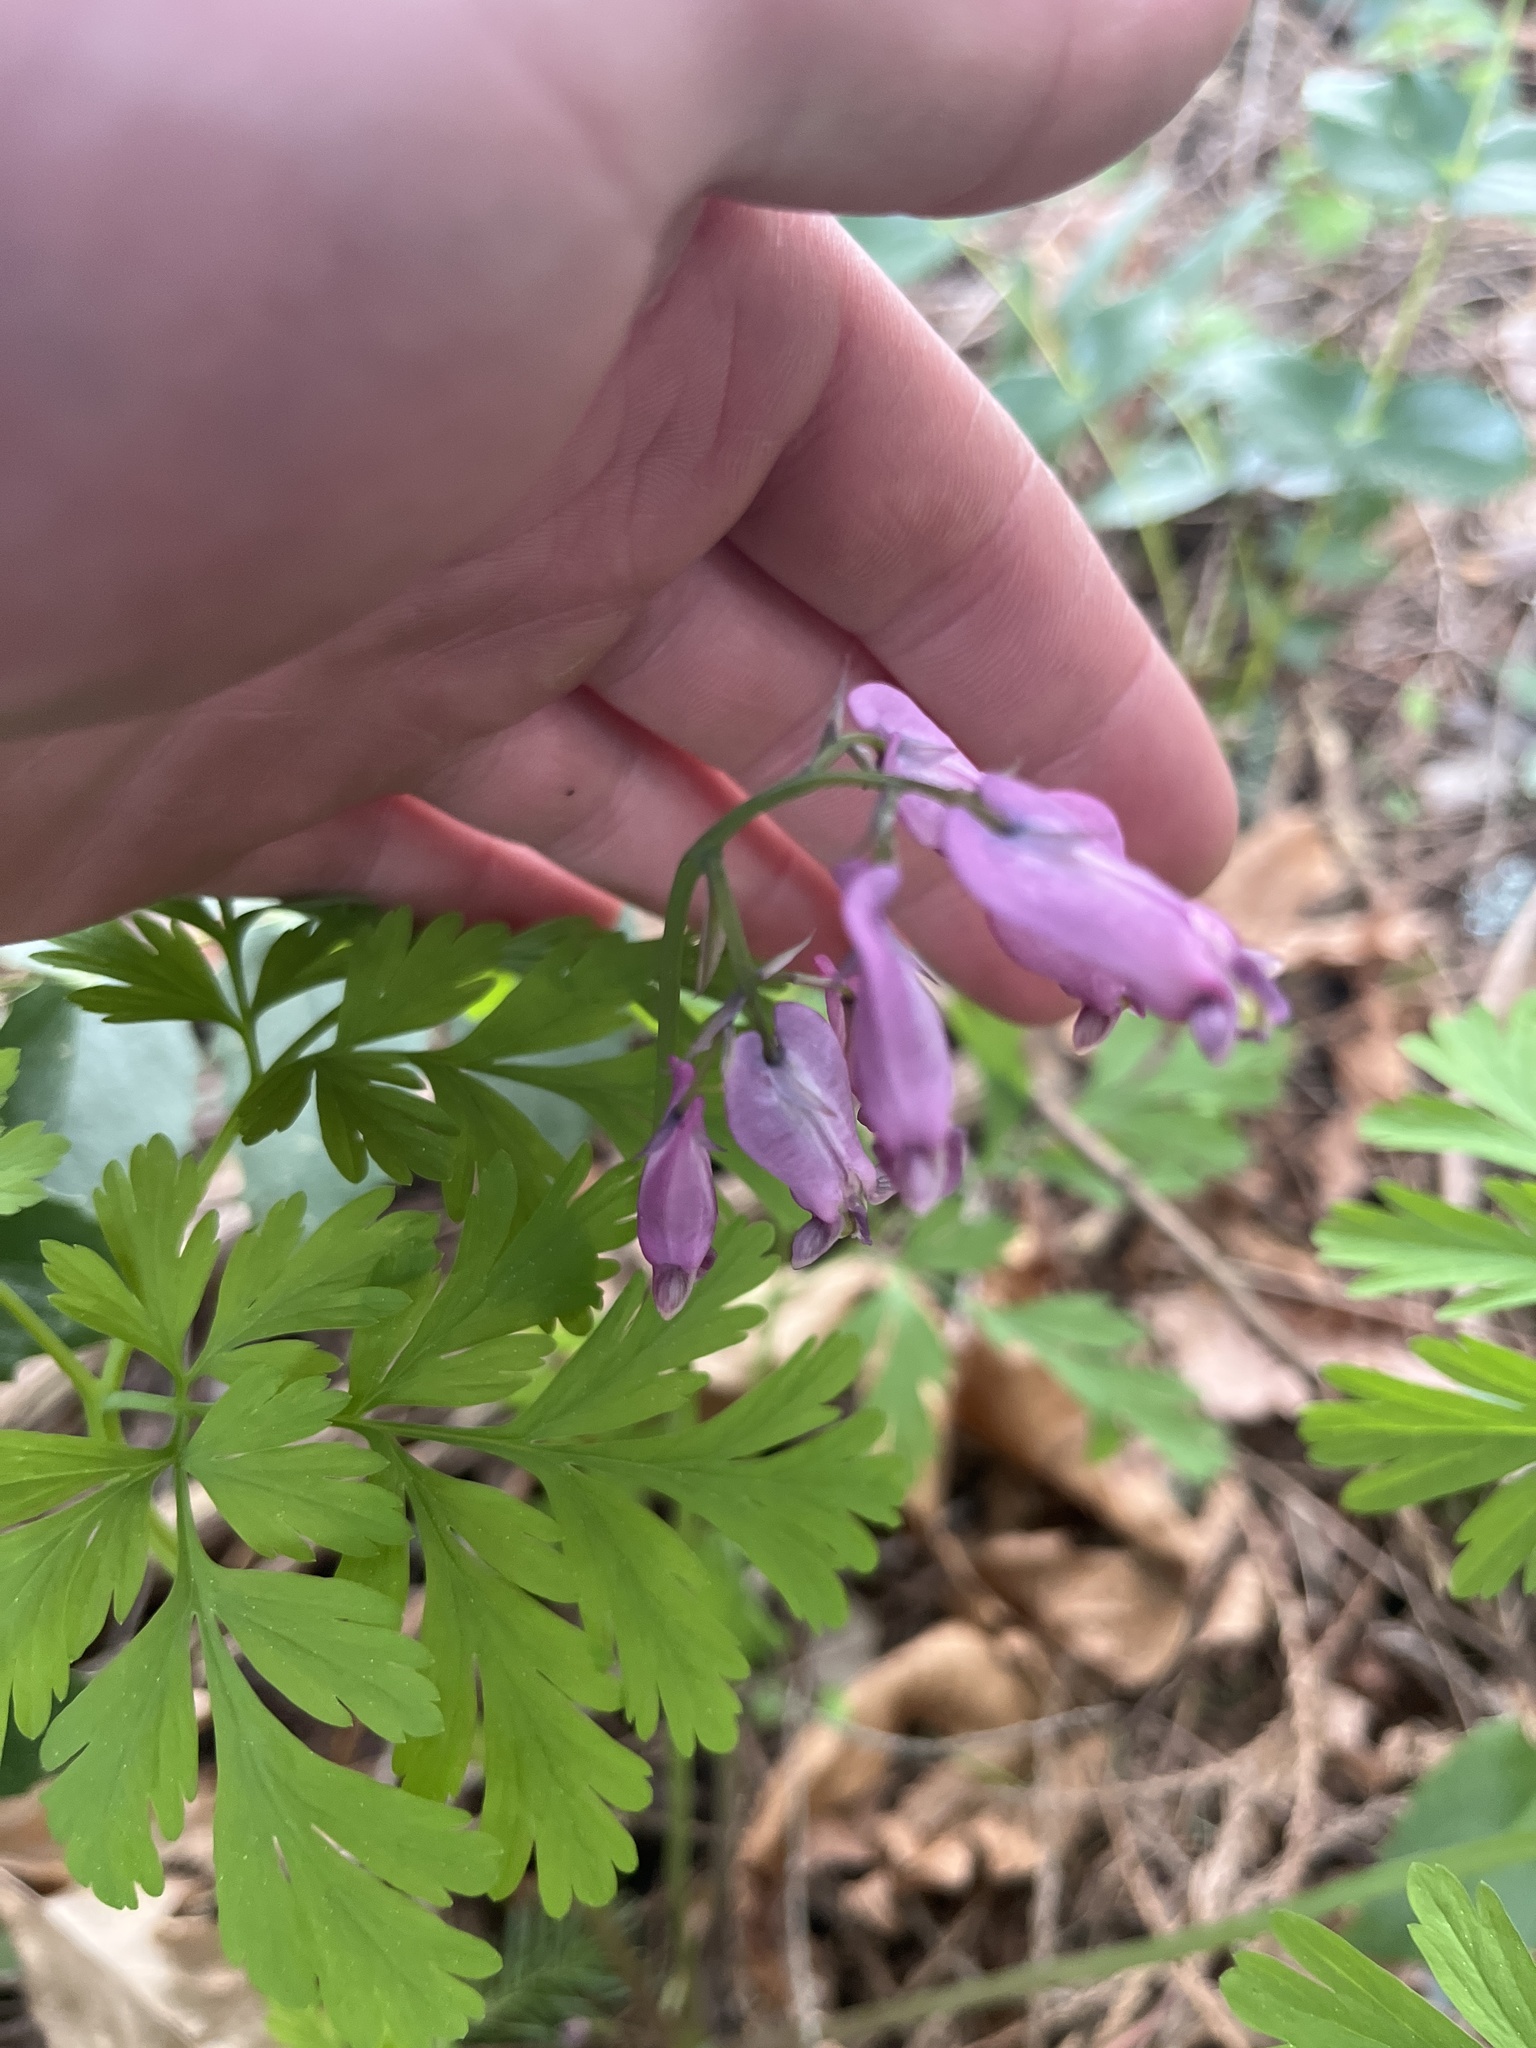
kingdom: Plantae
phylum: Tracheophyta
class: Magnoliopsida
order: Ranunculales
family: Papaveraceae
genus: Dicentra
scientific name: Dicentra formosa
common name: Bleeding-heart
